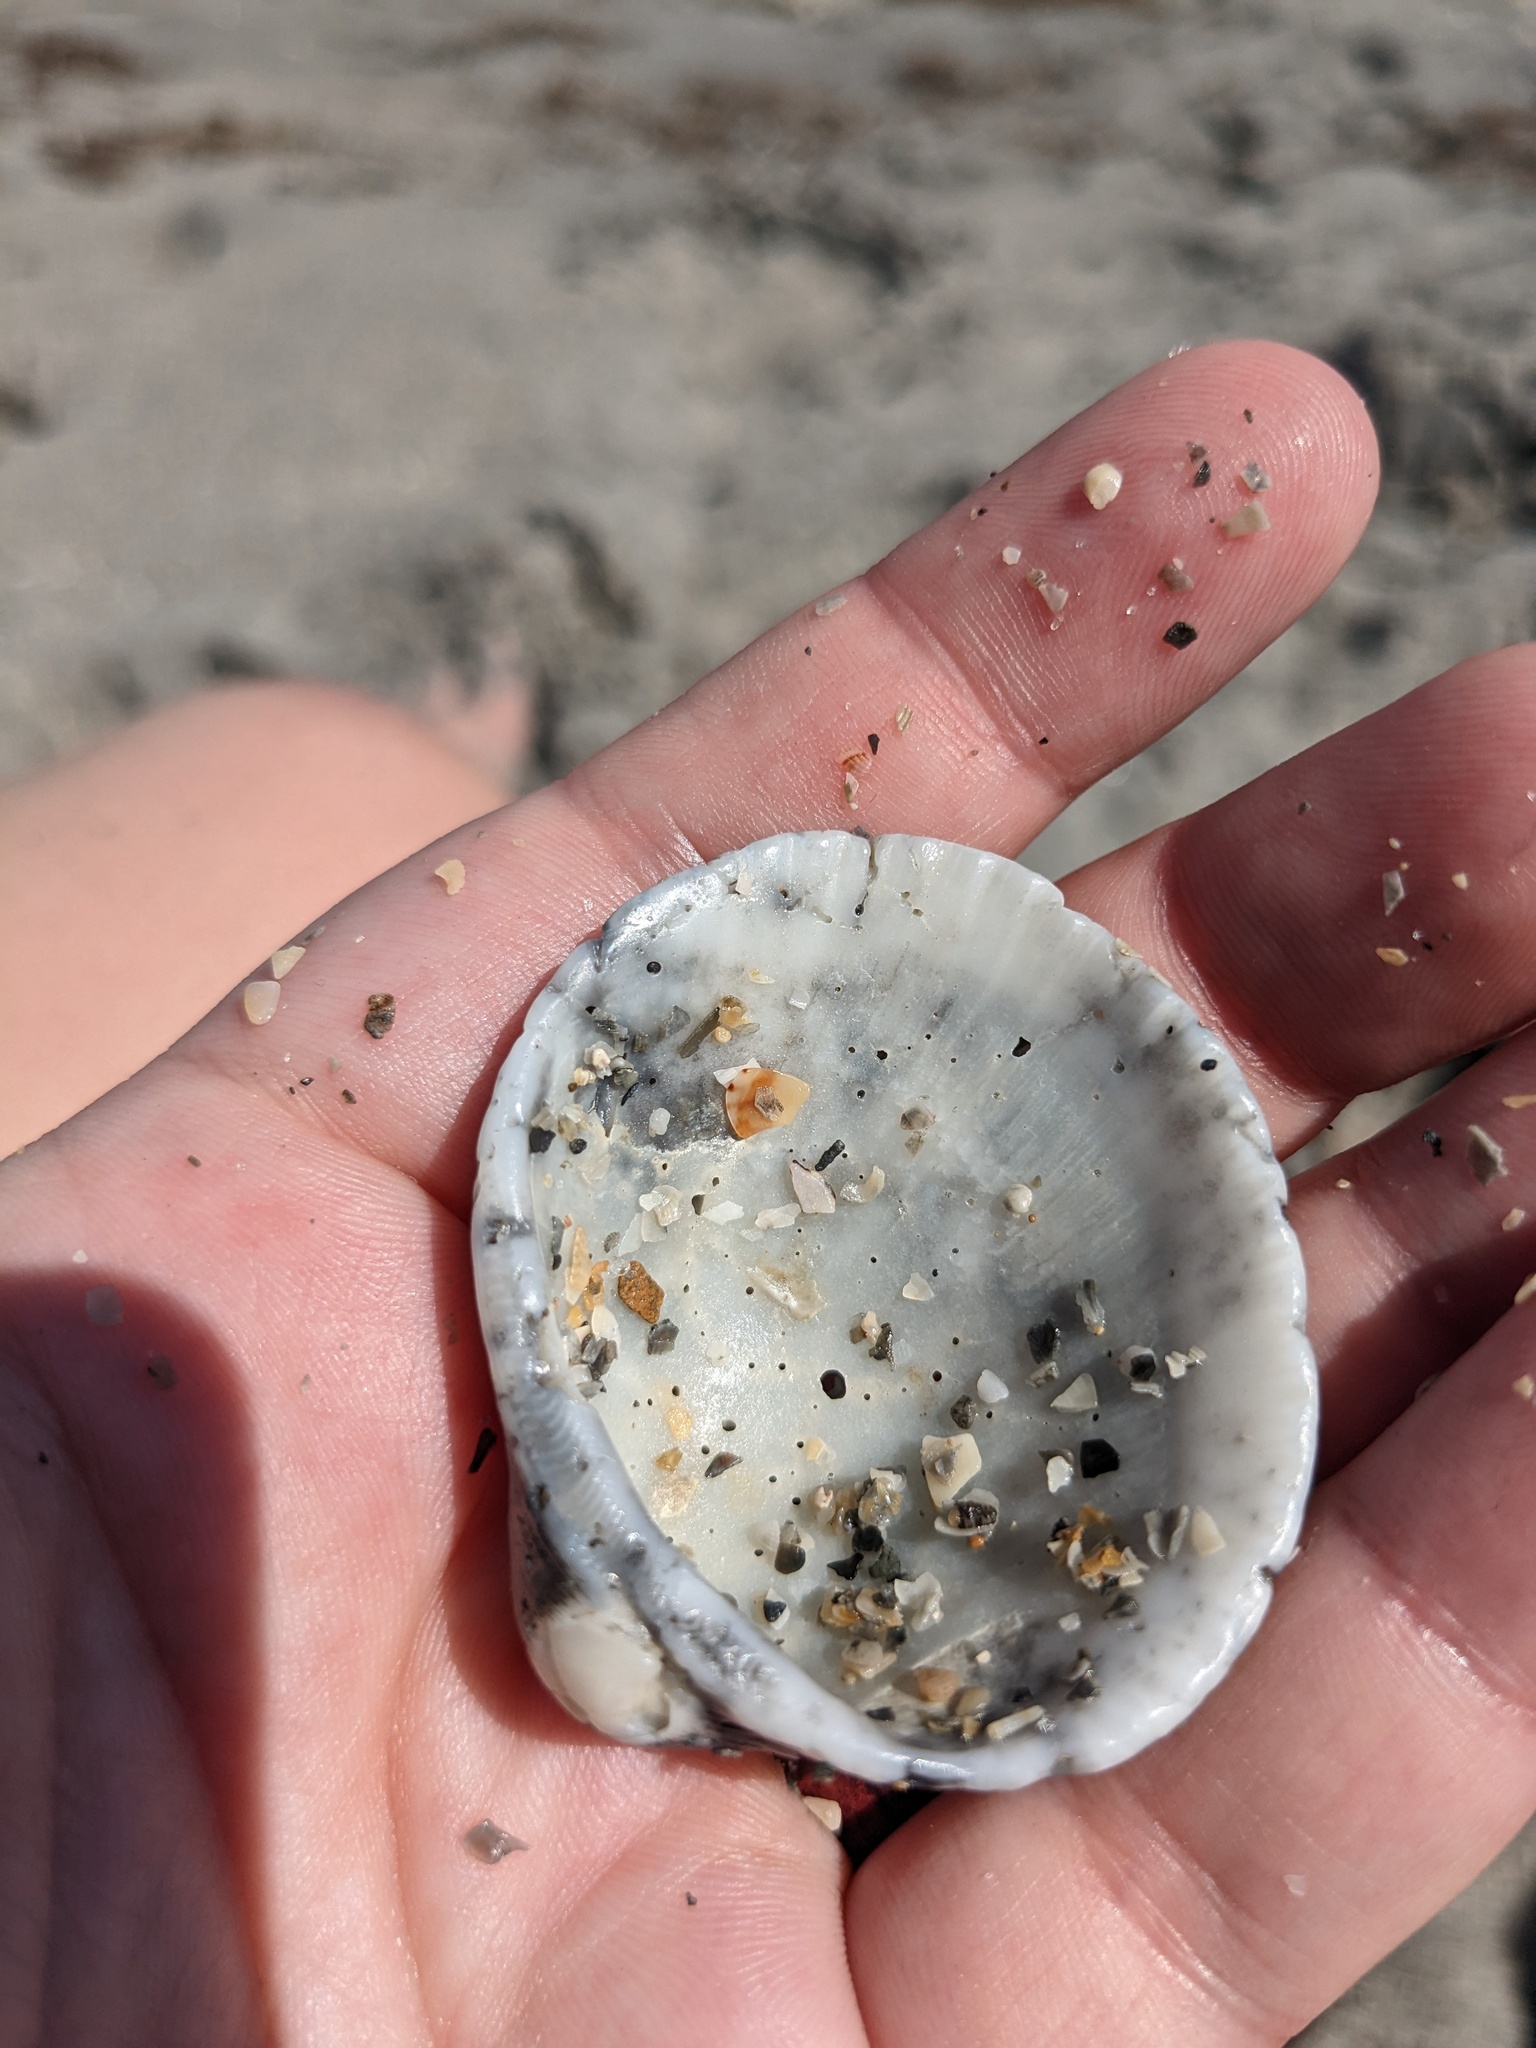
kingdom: Animalia
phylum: Mollusca
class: Bivalvia
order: Arcida
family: Arcidae
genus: Lunarca
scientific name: Lunarca ovalis
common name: Blood ark
